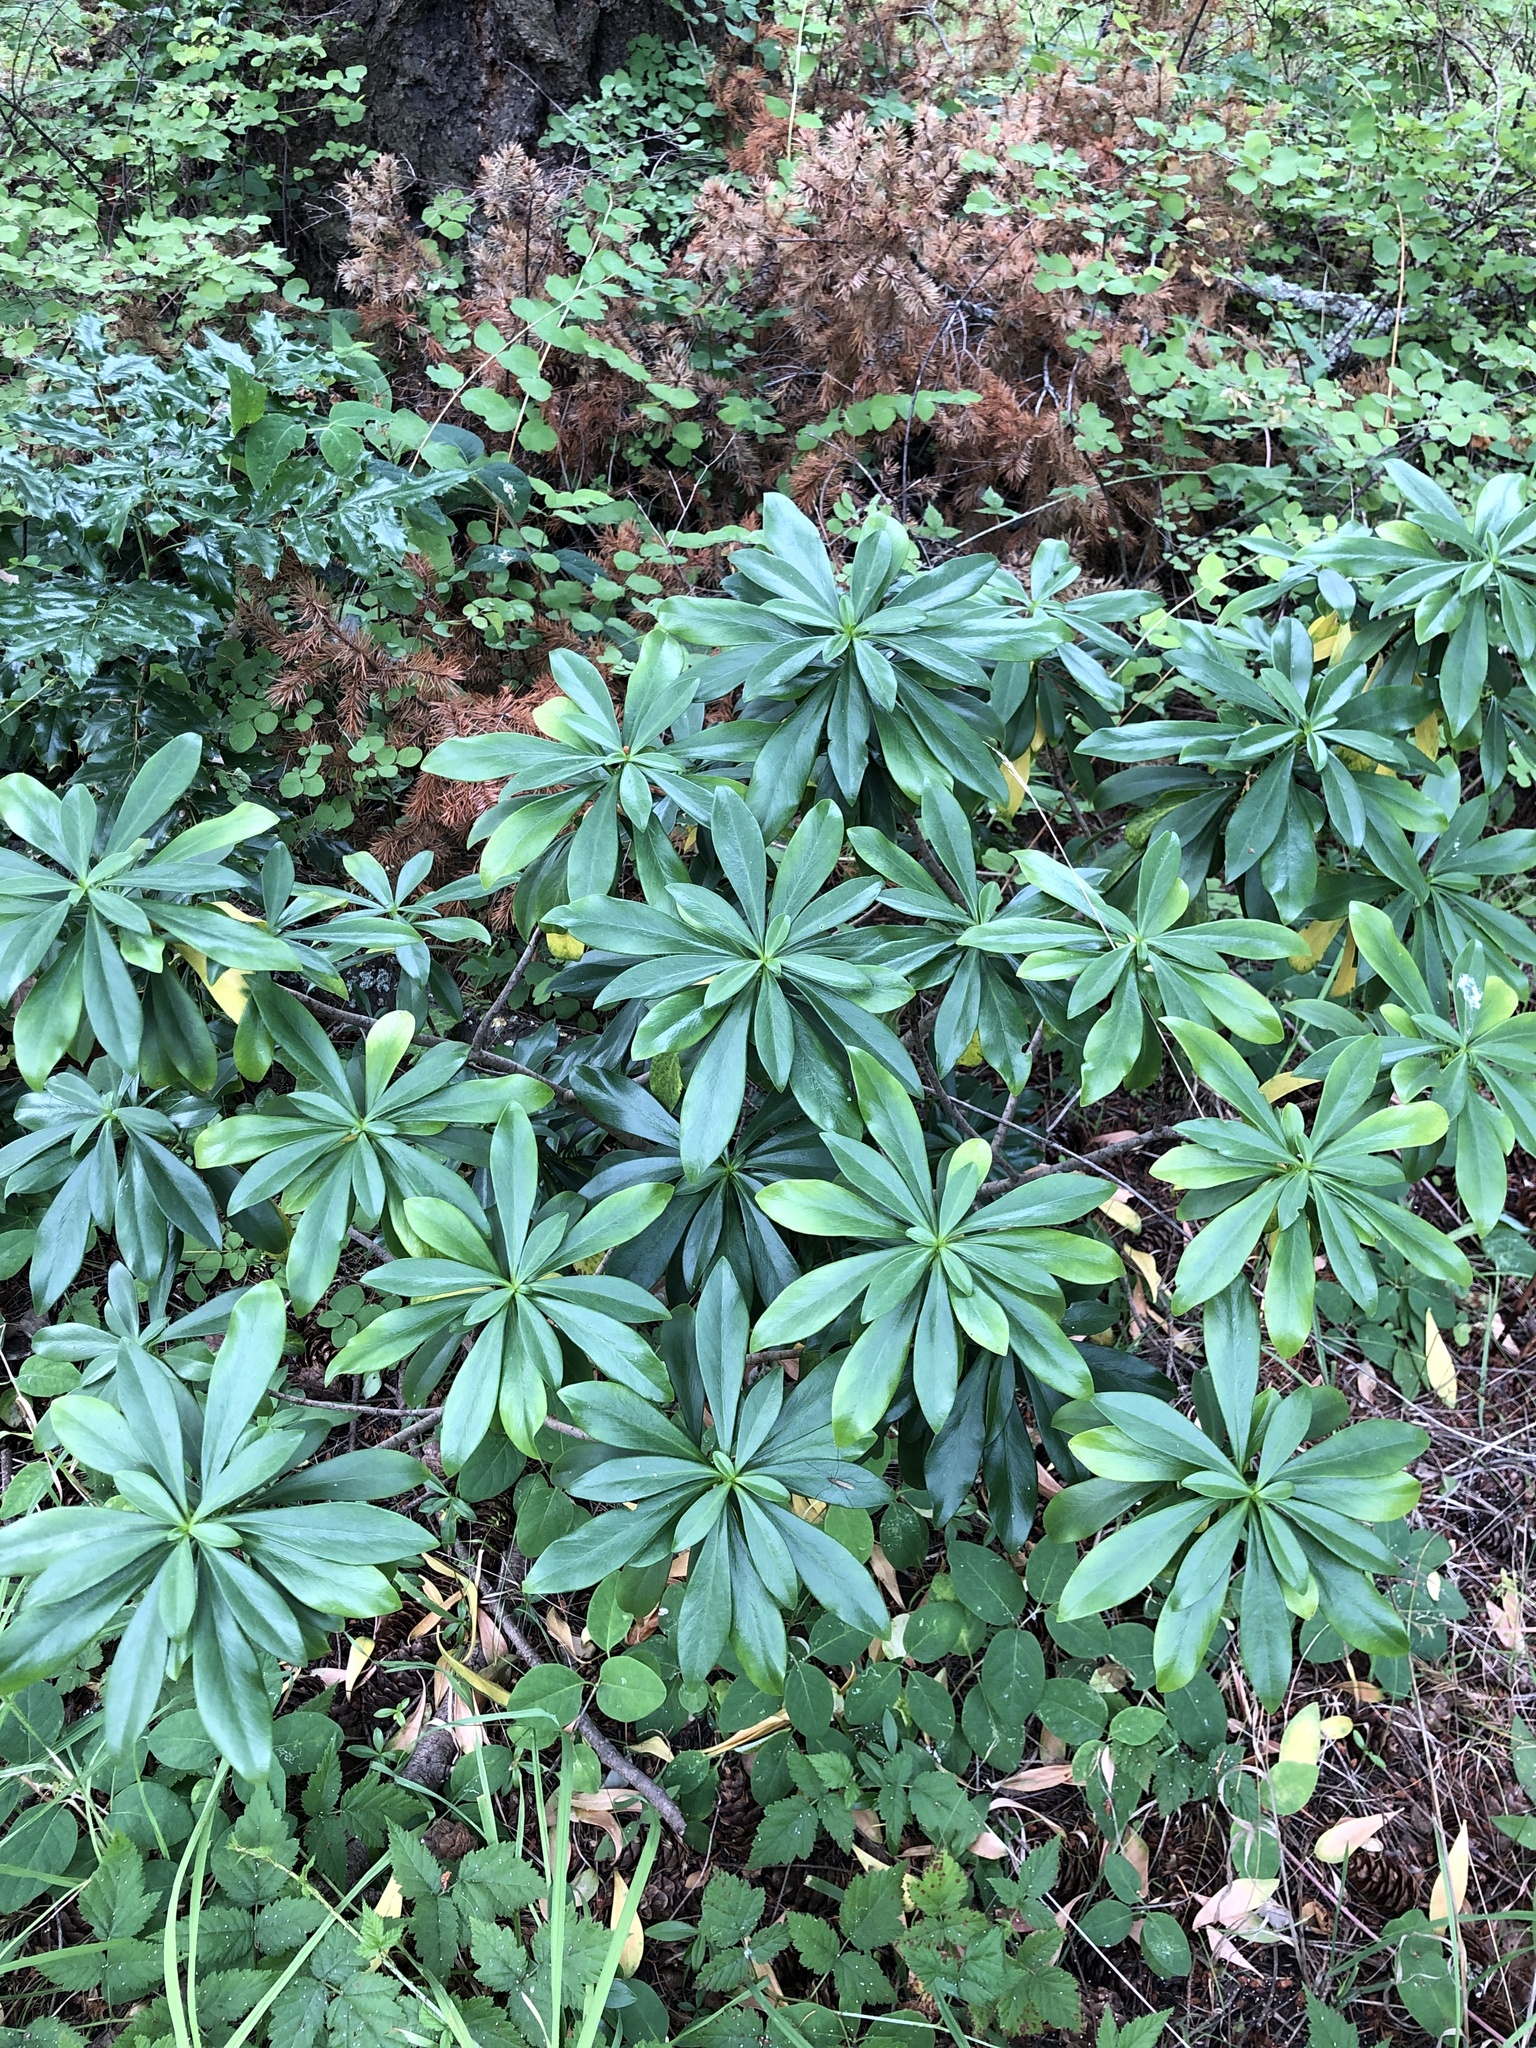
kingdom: Plantae
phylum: Tracheophyta
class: Magnoliopsida
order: Malvales
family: Thymelaeaceae
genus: Daphne
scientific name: Daphne laureola
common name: Spurge-laurel
